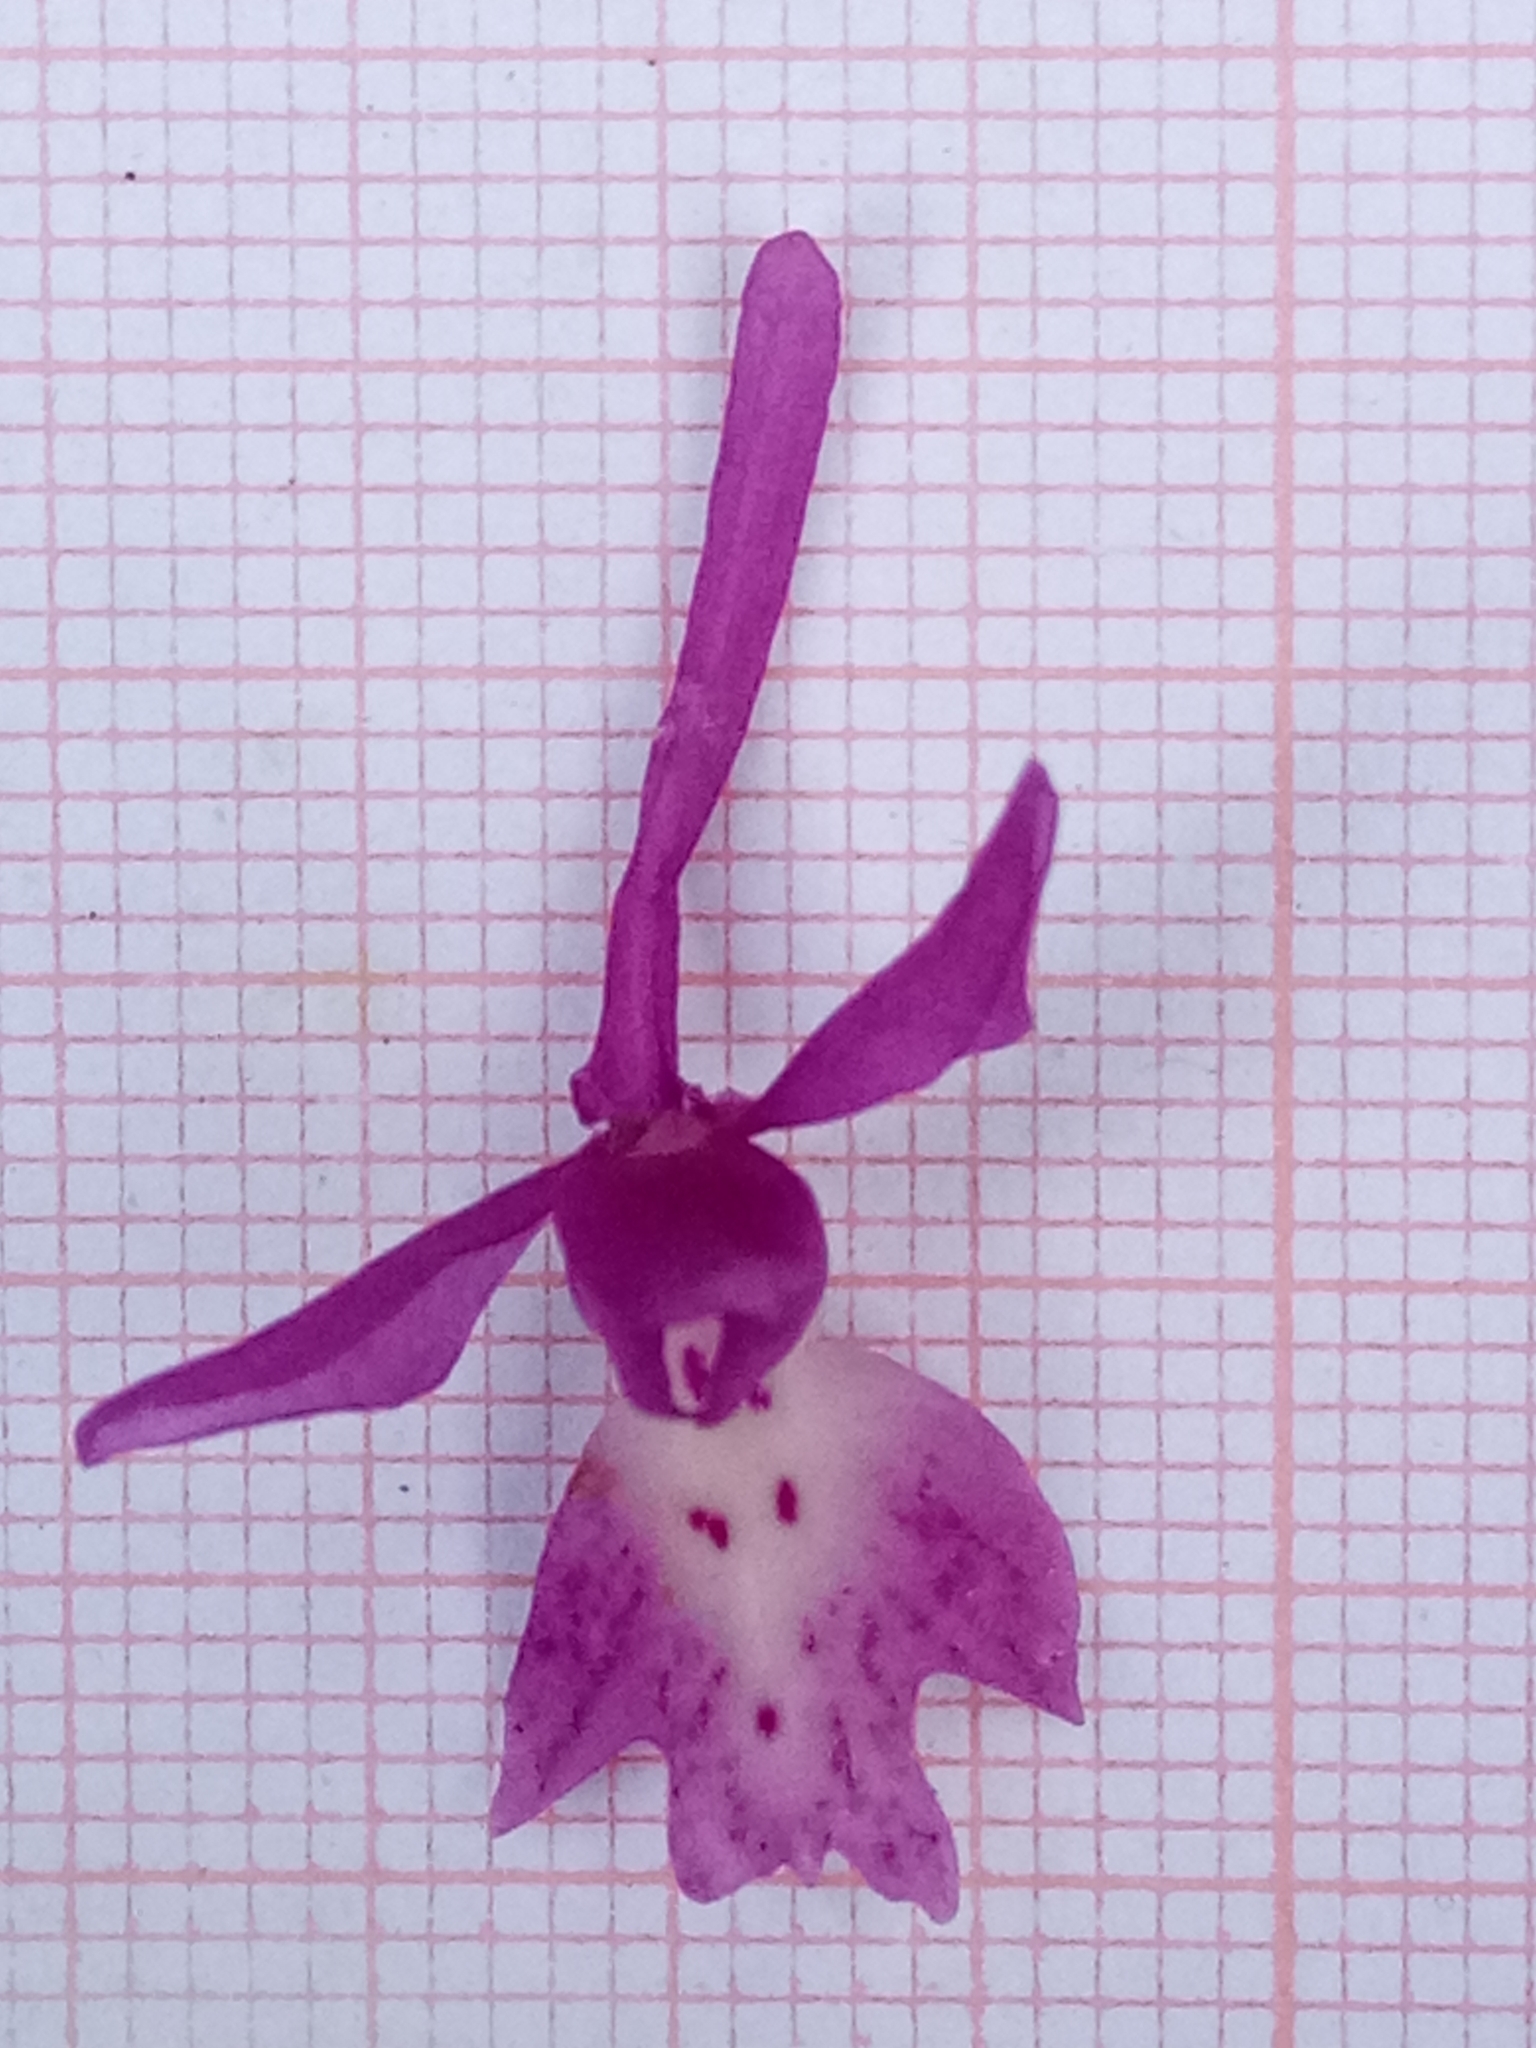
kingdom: Plantae
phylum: Tracheophyta
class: Liliopsida
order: Asparagales
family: Orchidaceae
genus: Orchis
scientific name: Orchis laeta
